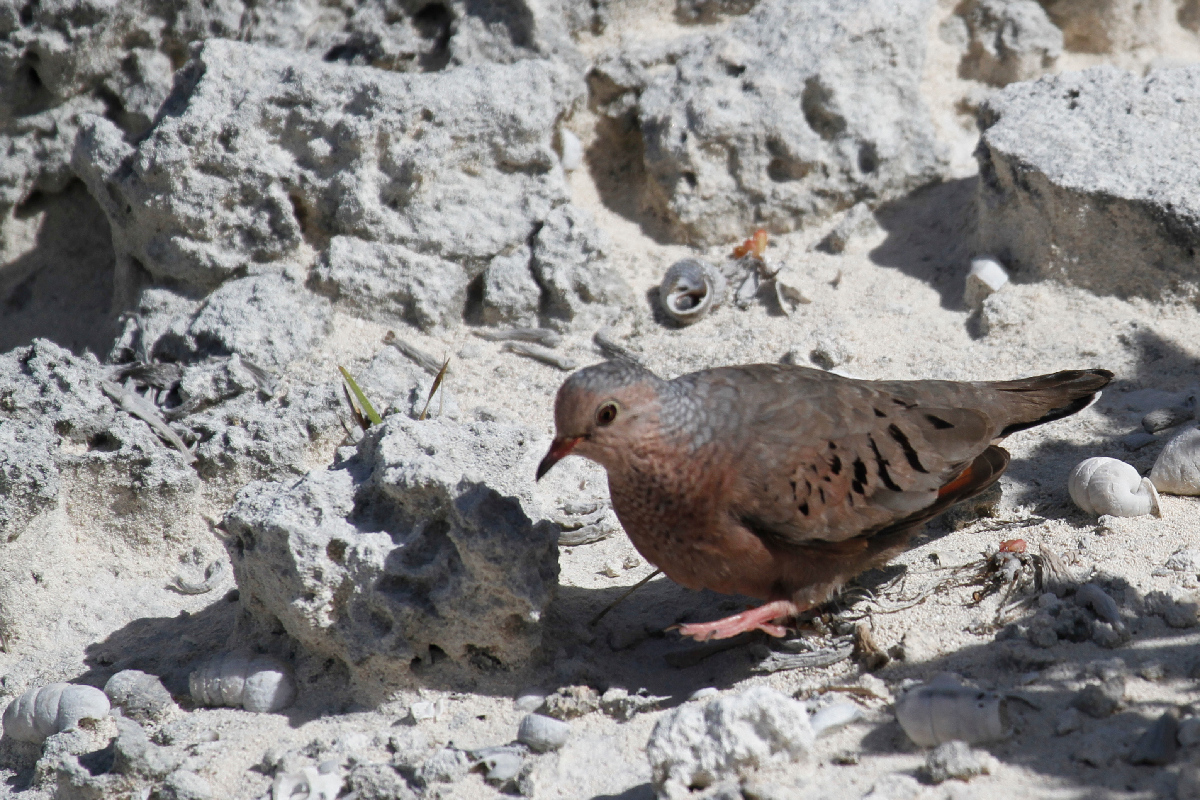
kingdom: Animalia
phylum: Chordata
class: Aves
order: Columbiformes
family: Columbidae
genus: Columbina
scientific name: Columbina passerina
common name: Common ground-dove
